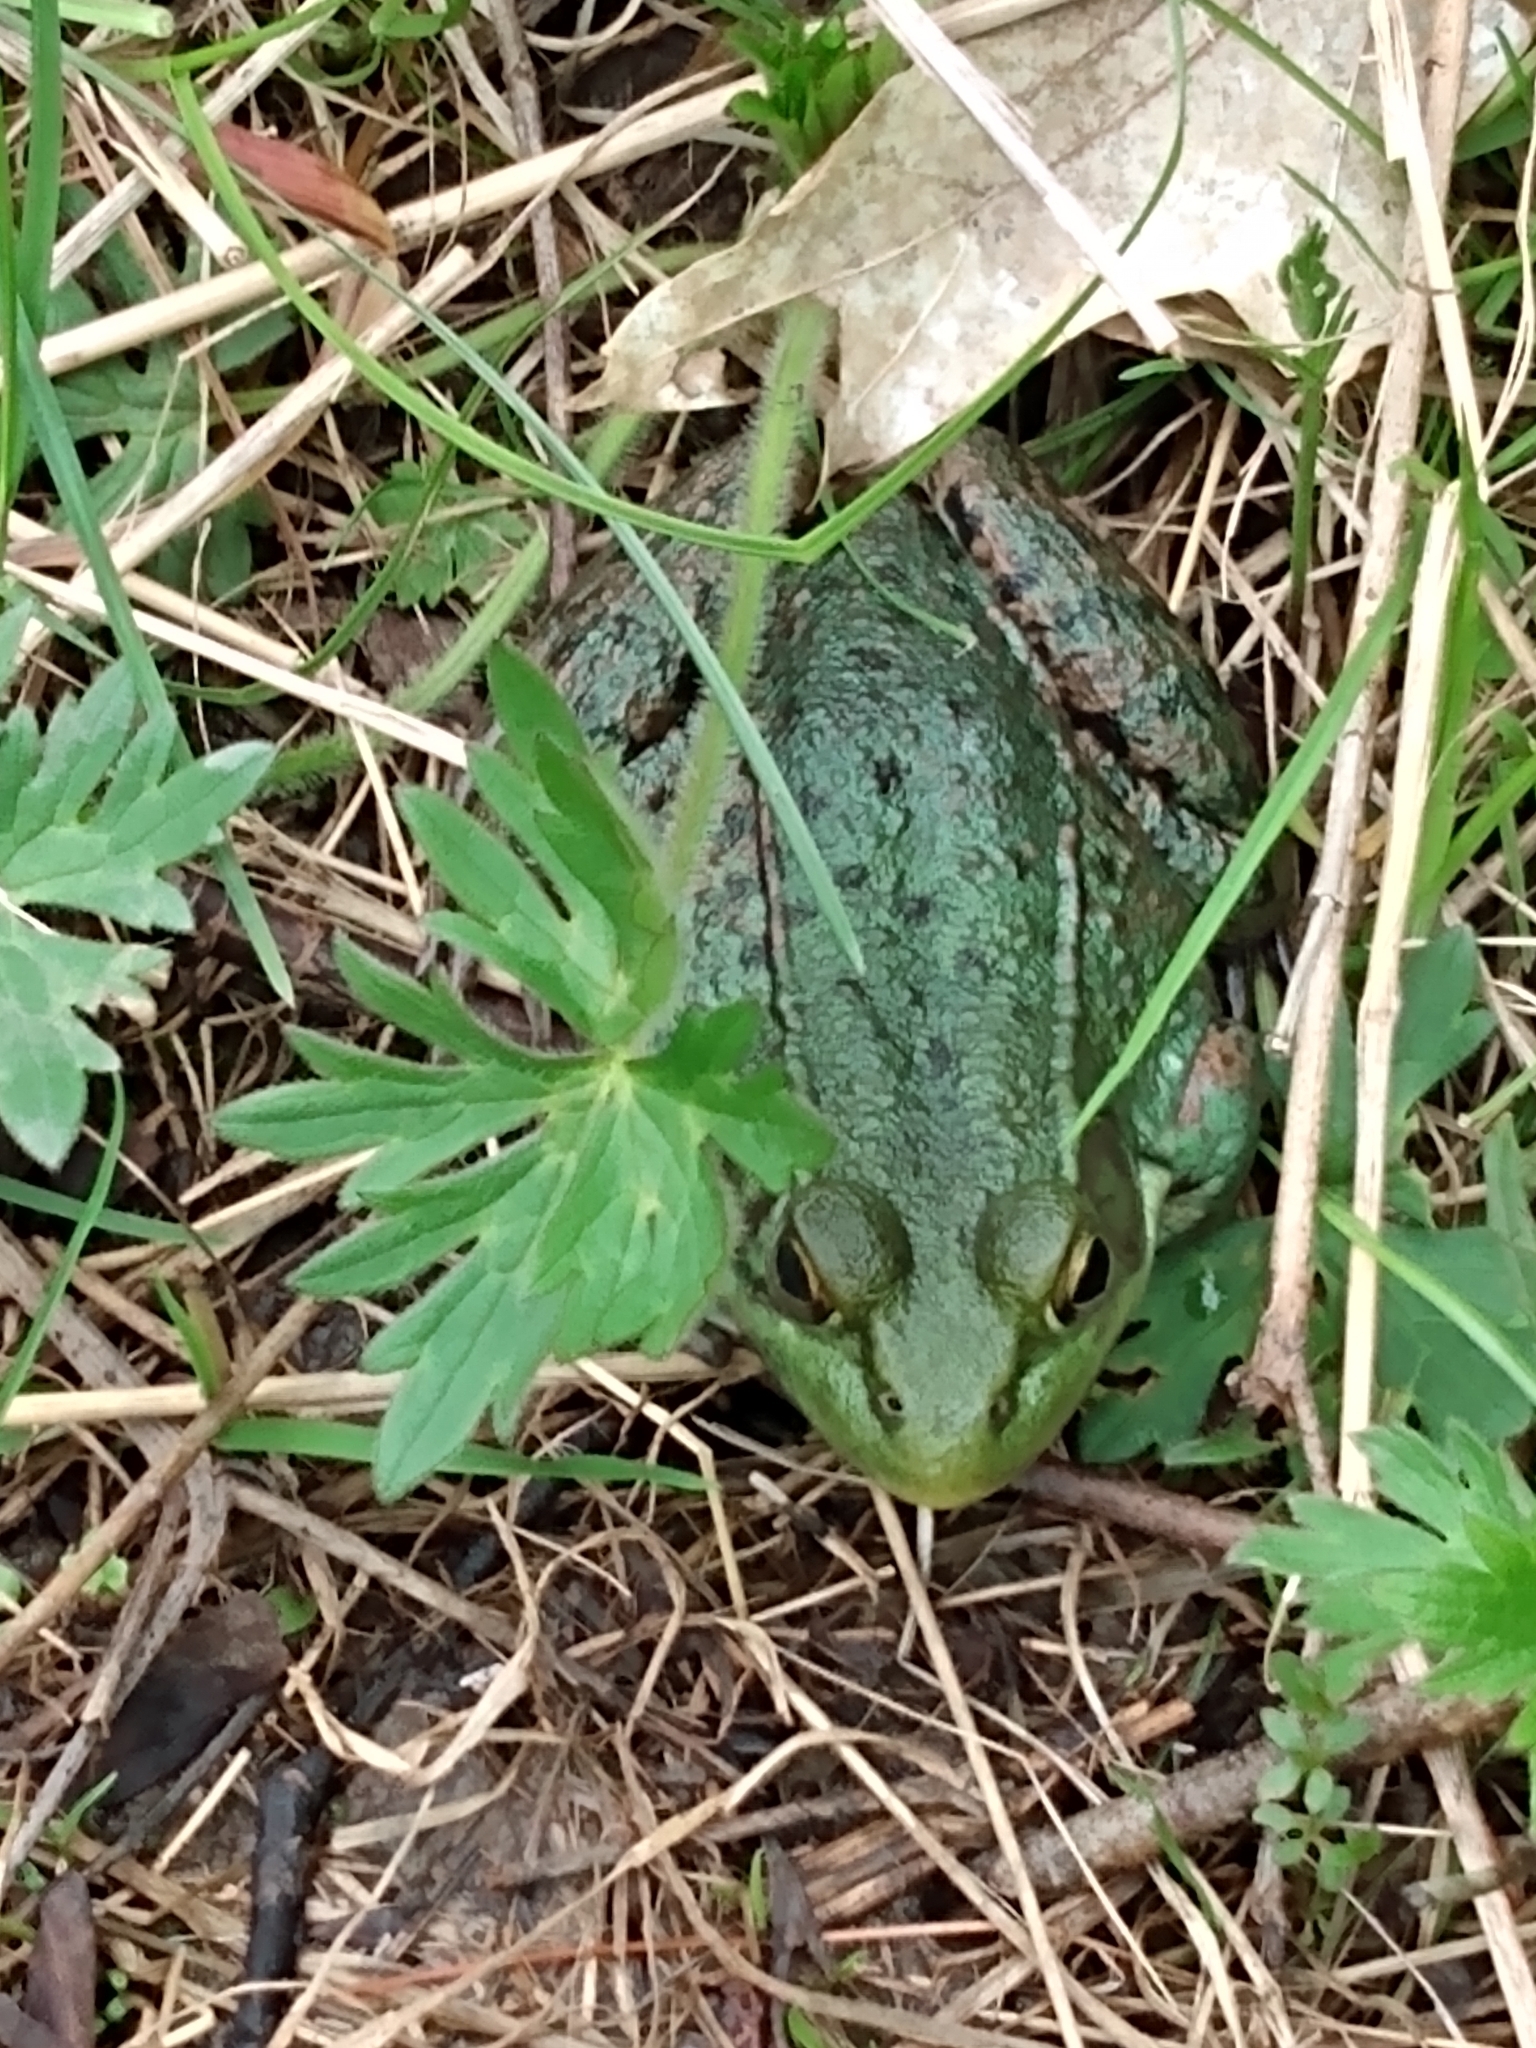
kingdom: Animalia
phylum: Chordata
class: Amphibia
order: Anura
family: Ranidae
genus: Lithobates
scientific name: Lithobates clamitans
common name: Green frog
